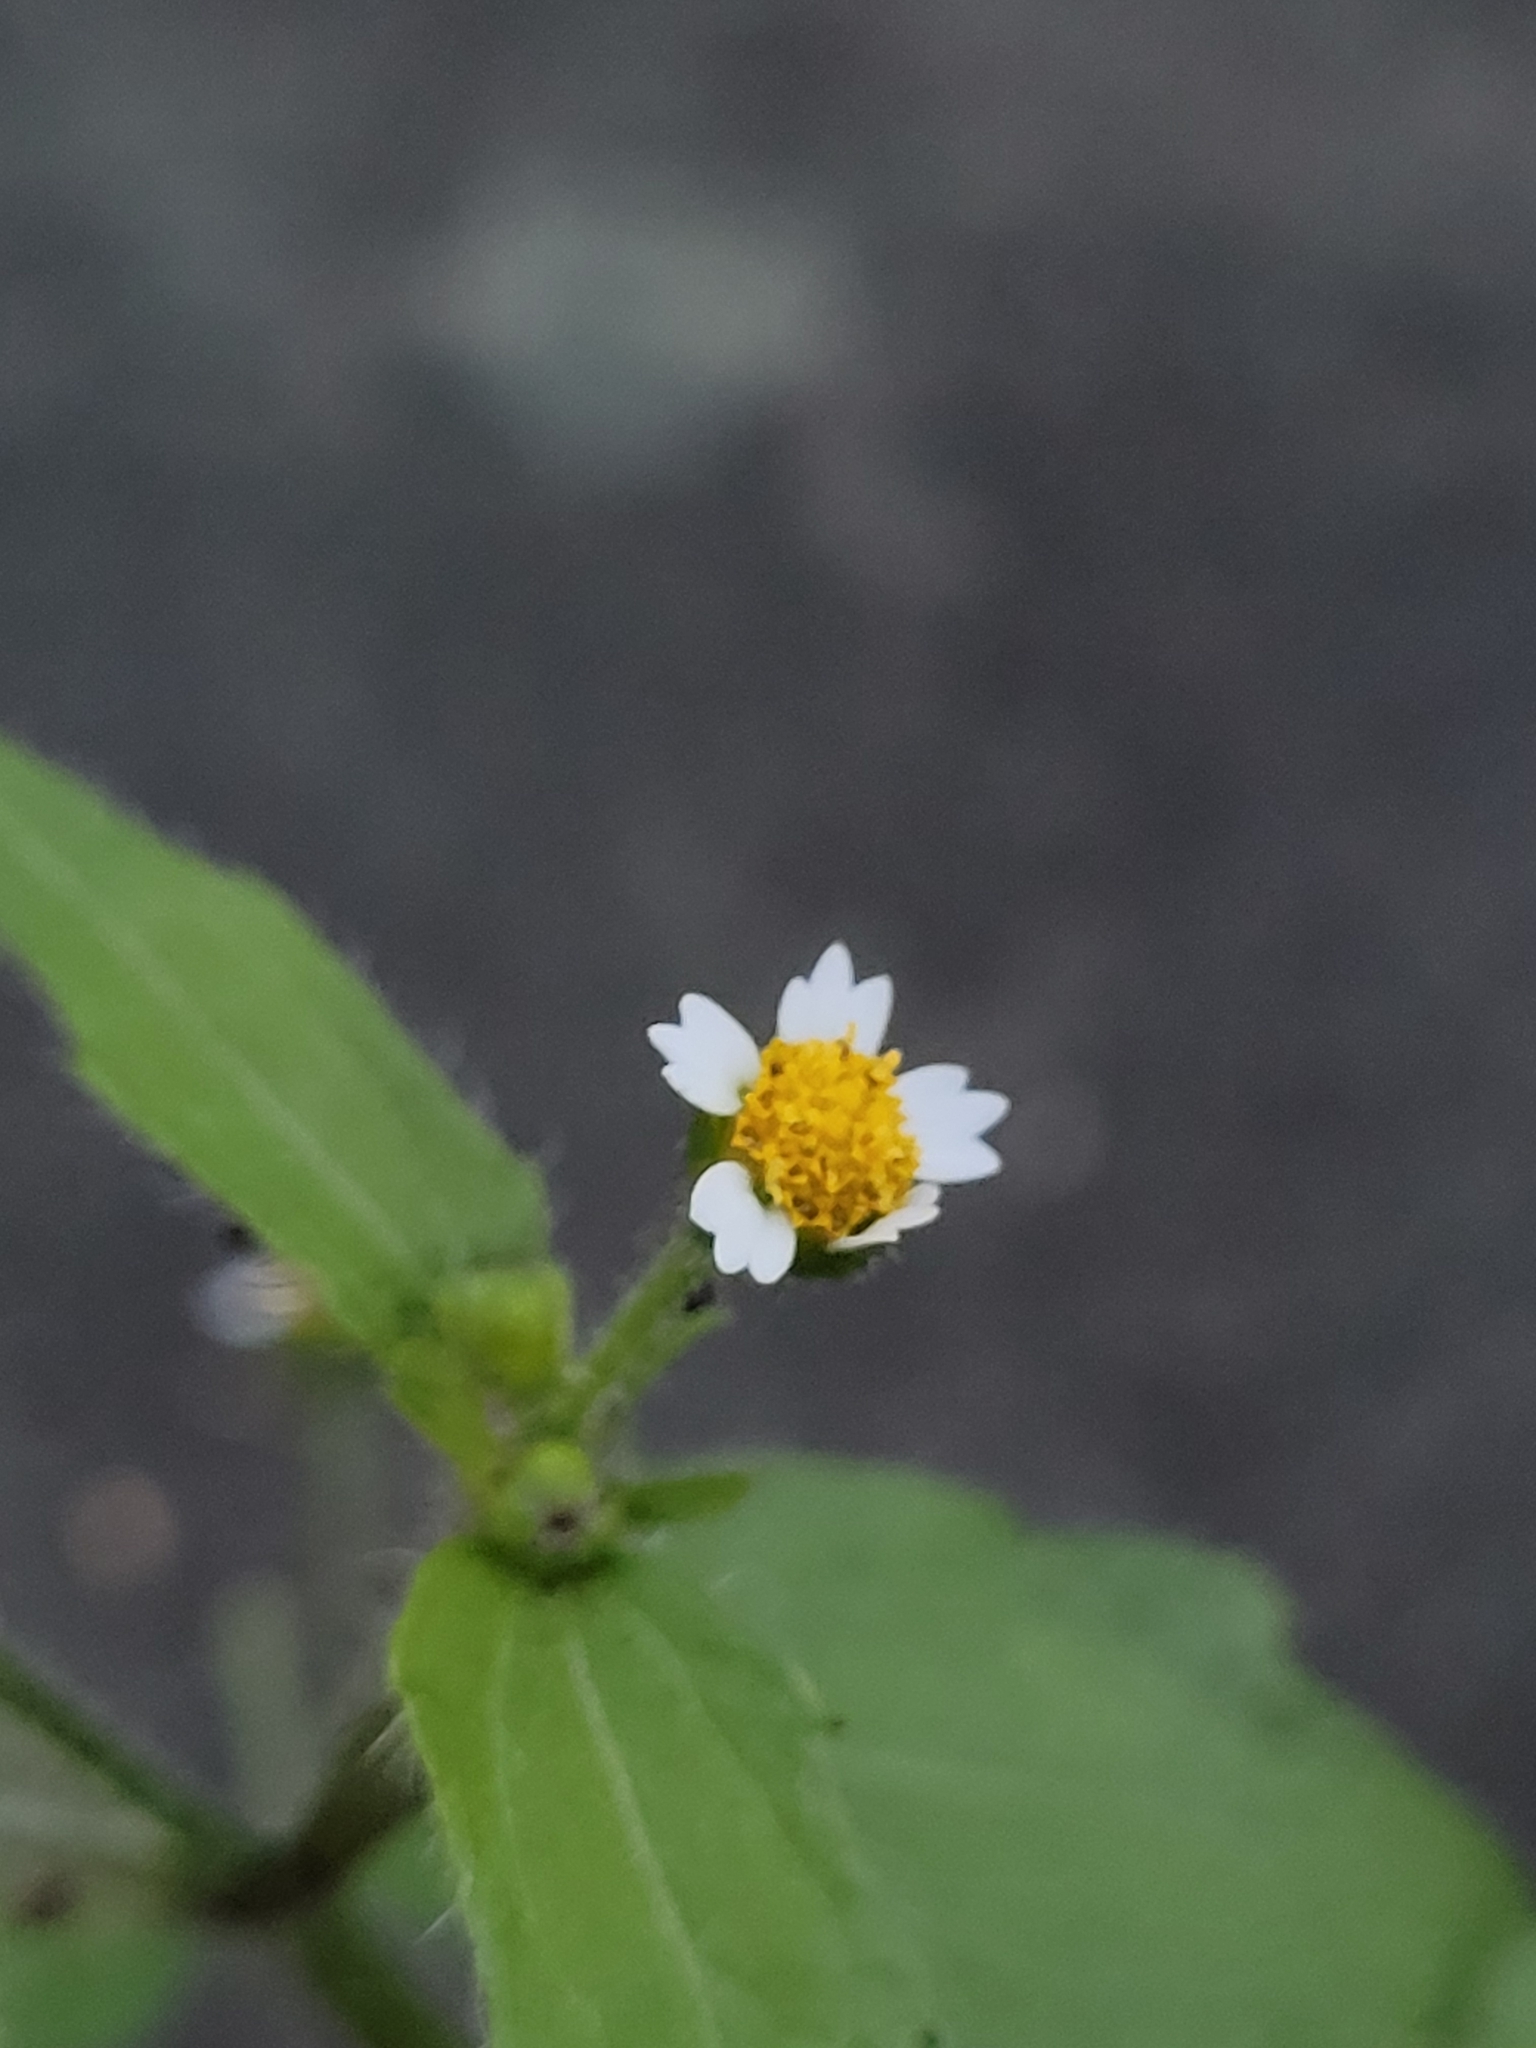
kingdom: Plantae
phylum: Tracheophyta
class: Magnoliopsida
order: Asterales
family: Asteraceae
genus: Galinsoga
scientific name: Galinsoga quadriradiata
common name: Shaggy soldier
